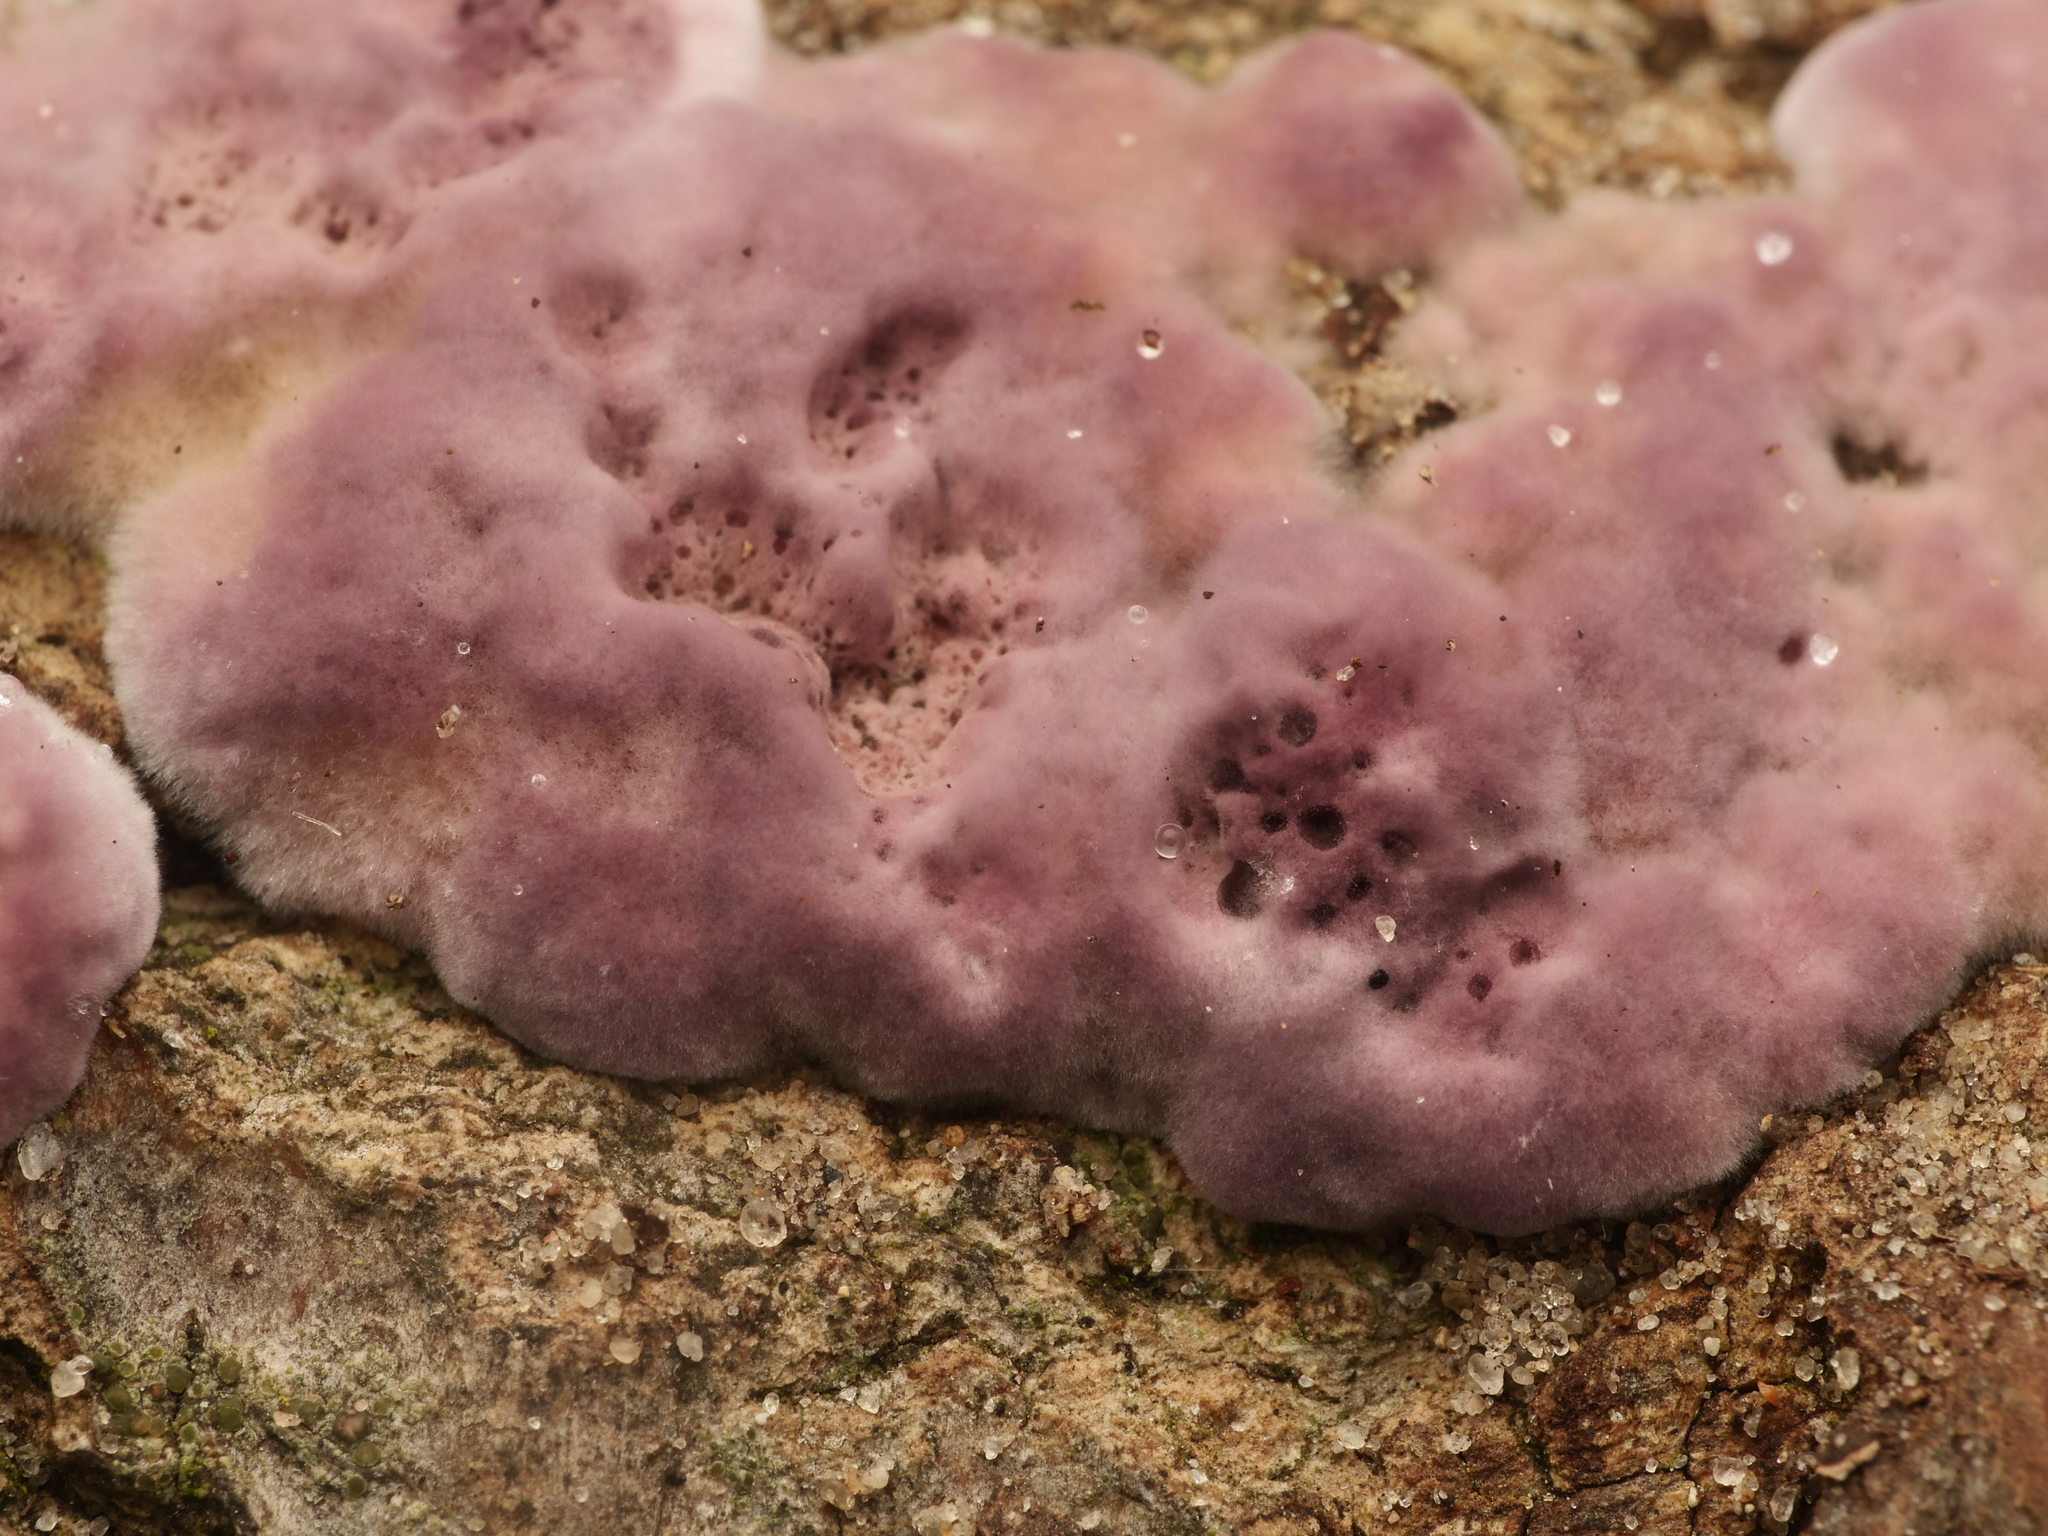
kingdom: Fungi
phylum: Basidiomycota
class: Agaricomycetes
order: Agaricales
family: Cyphellaceae
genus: Chondrostereum
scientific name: Chondrostereum purpureum
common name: Silver leaf disease
